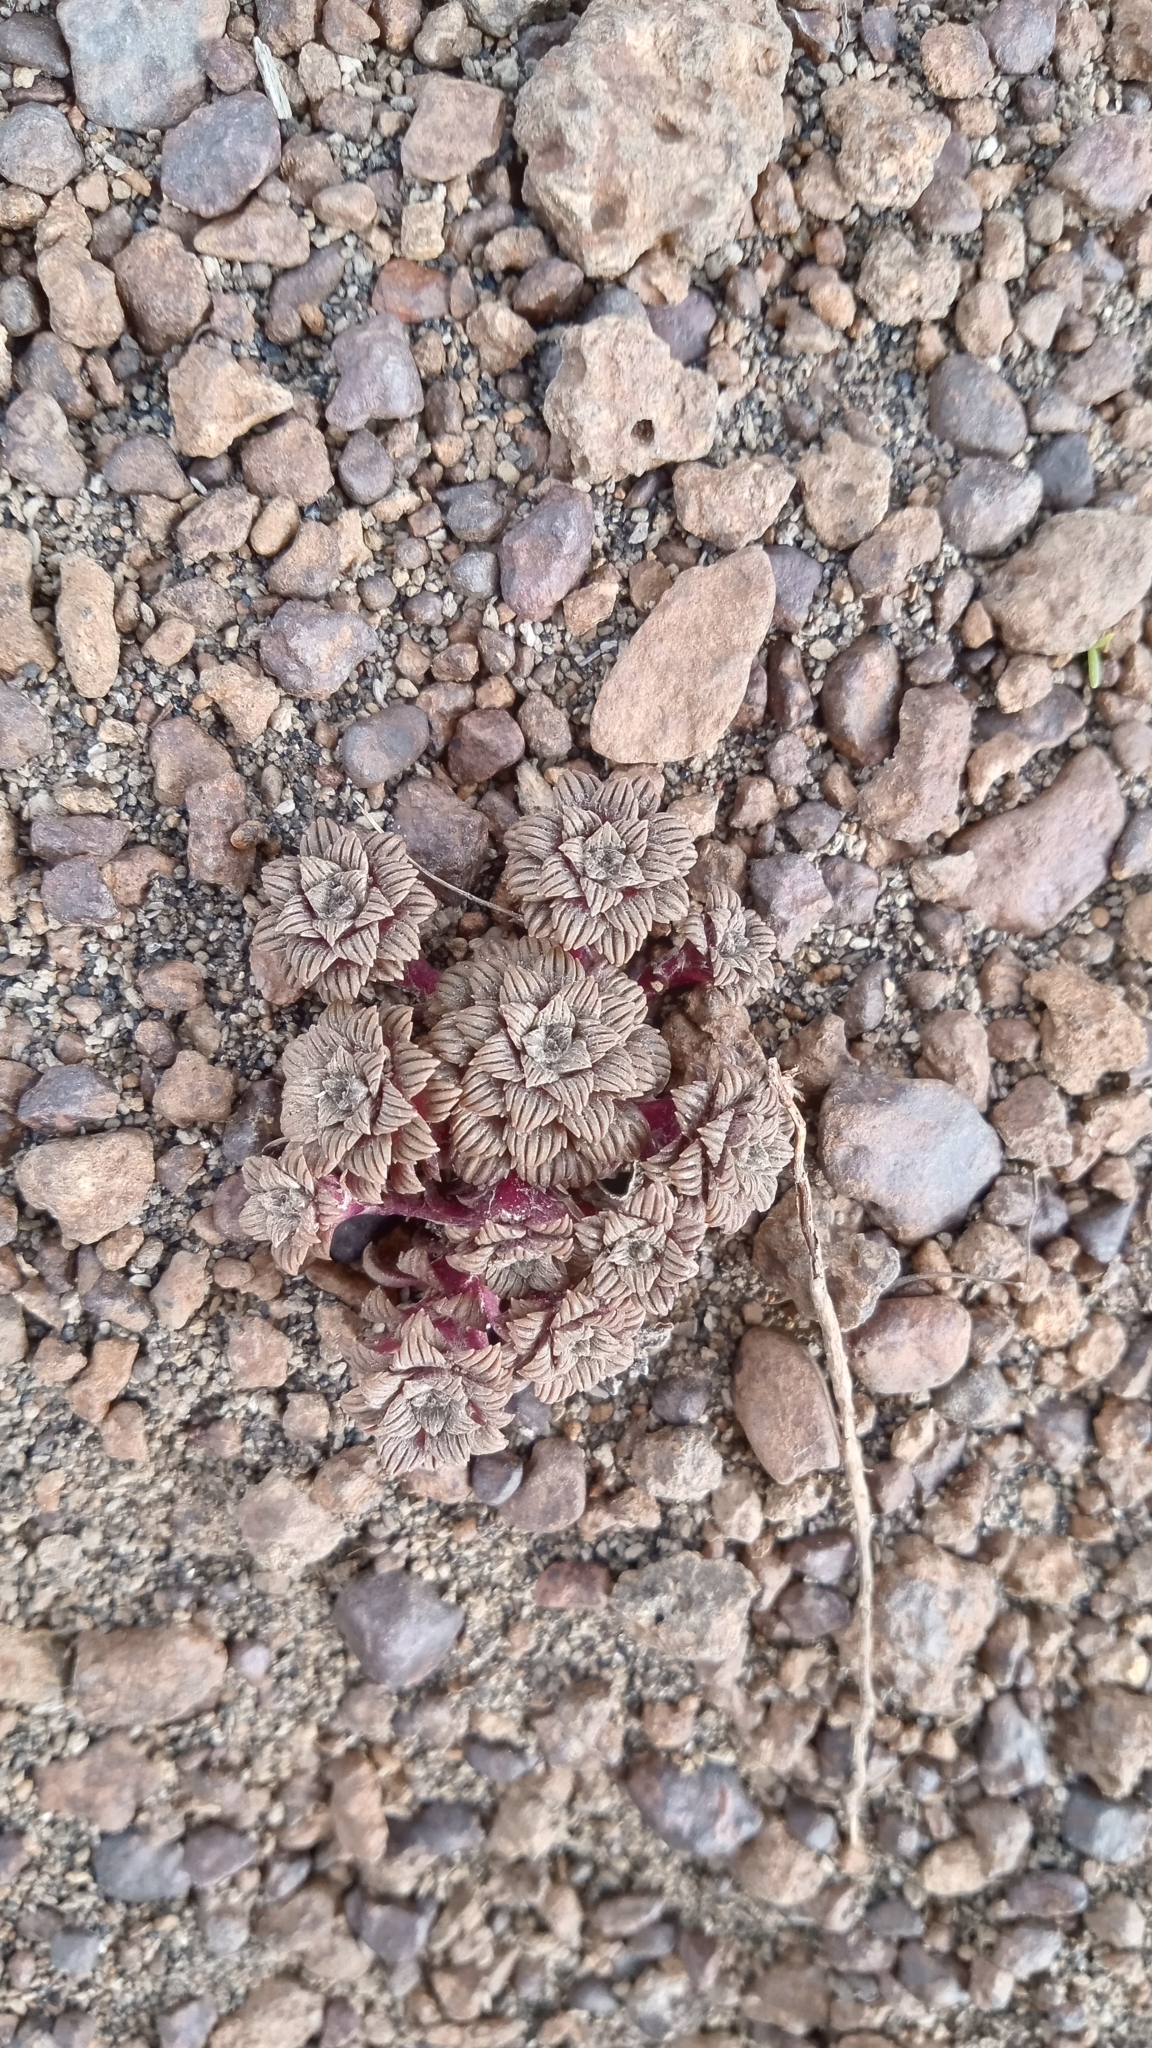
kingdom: Plantae
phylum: Tracheophyta
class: Magnoliopsida
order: Asterales
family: Asteraceae
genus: Nassauvia
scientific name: Nassauvia lagascae
